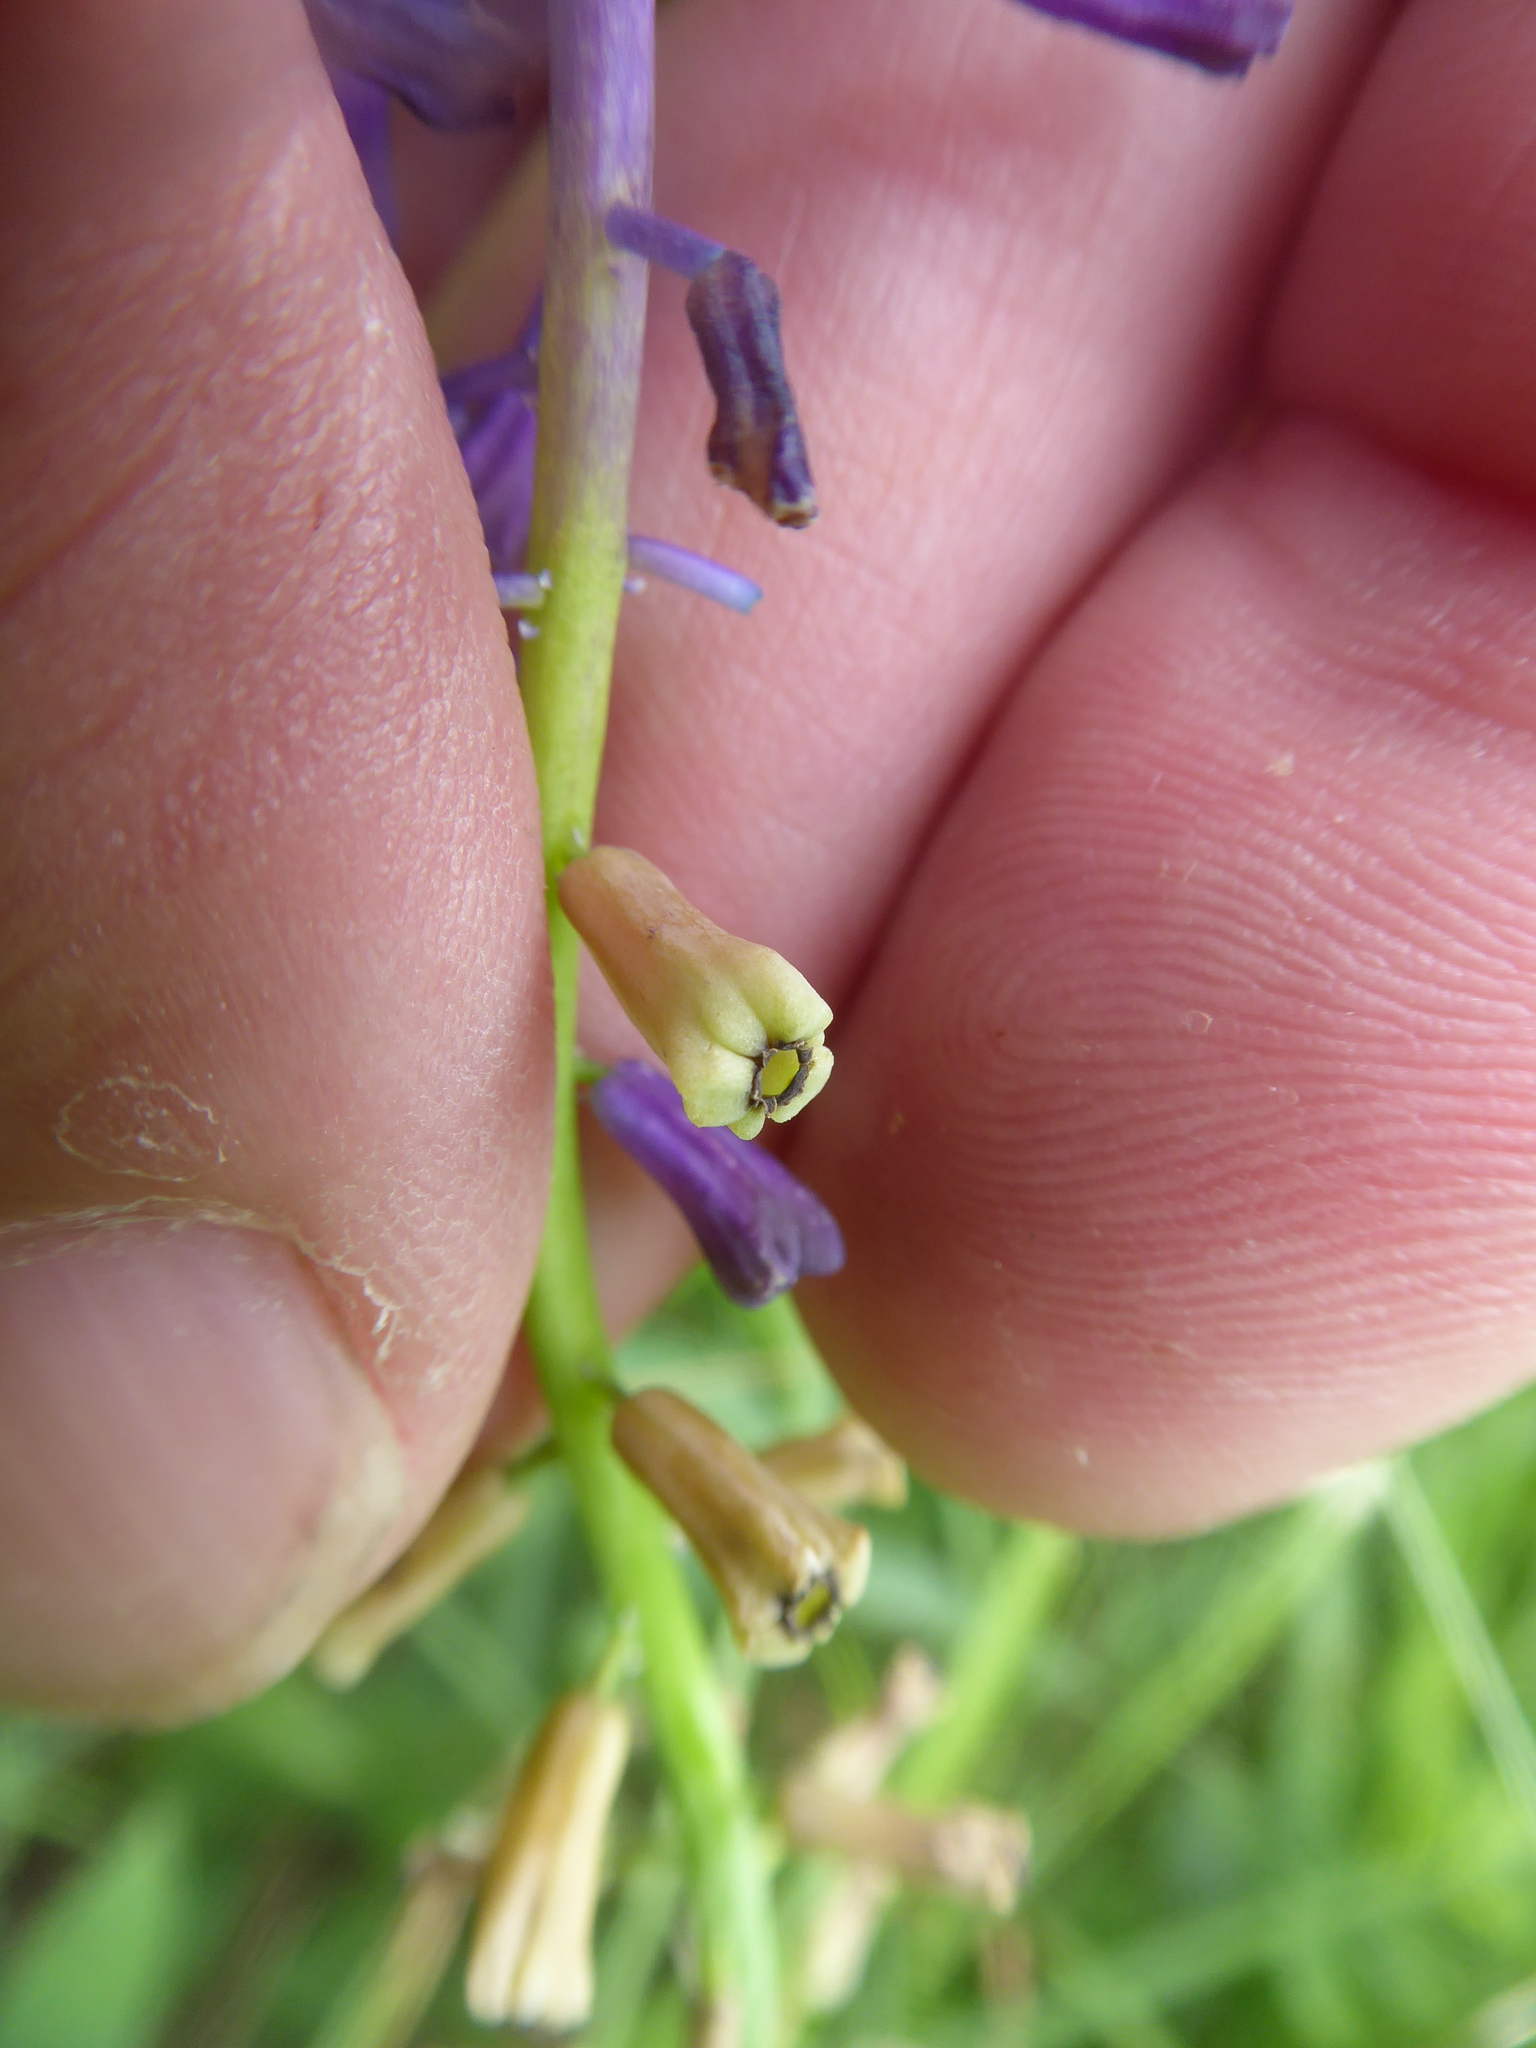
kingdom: Plantae
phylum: Tracheophyta
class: Liliopsida
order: Asparagales
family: Asparagaceae
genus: Muscari
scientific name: Muscari tenuiflorum
